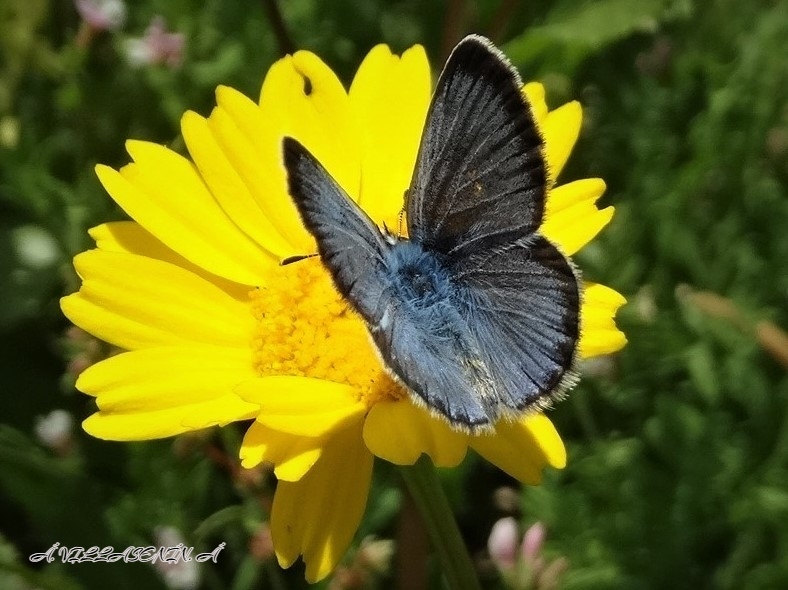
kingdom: Animalia
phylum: Arthropoda
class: Insecta
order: Lepidoptera
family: Lycaenidae
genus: Glaucopsyche
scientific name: Glaucopsyche melanops
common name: Black-eyed blue
